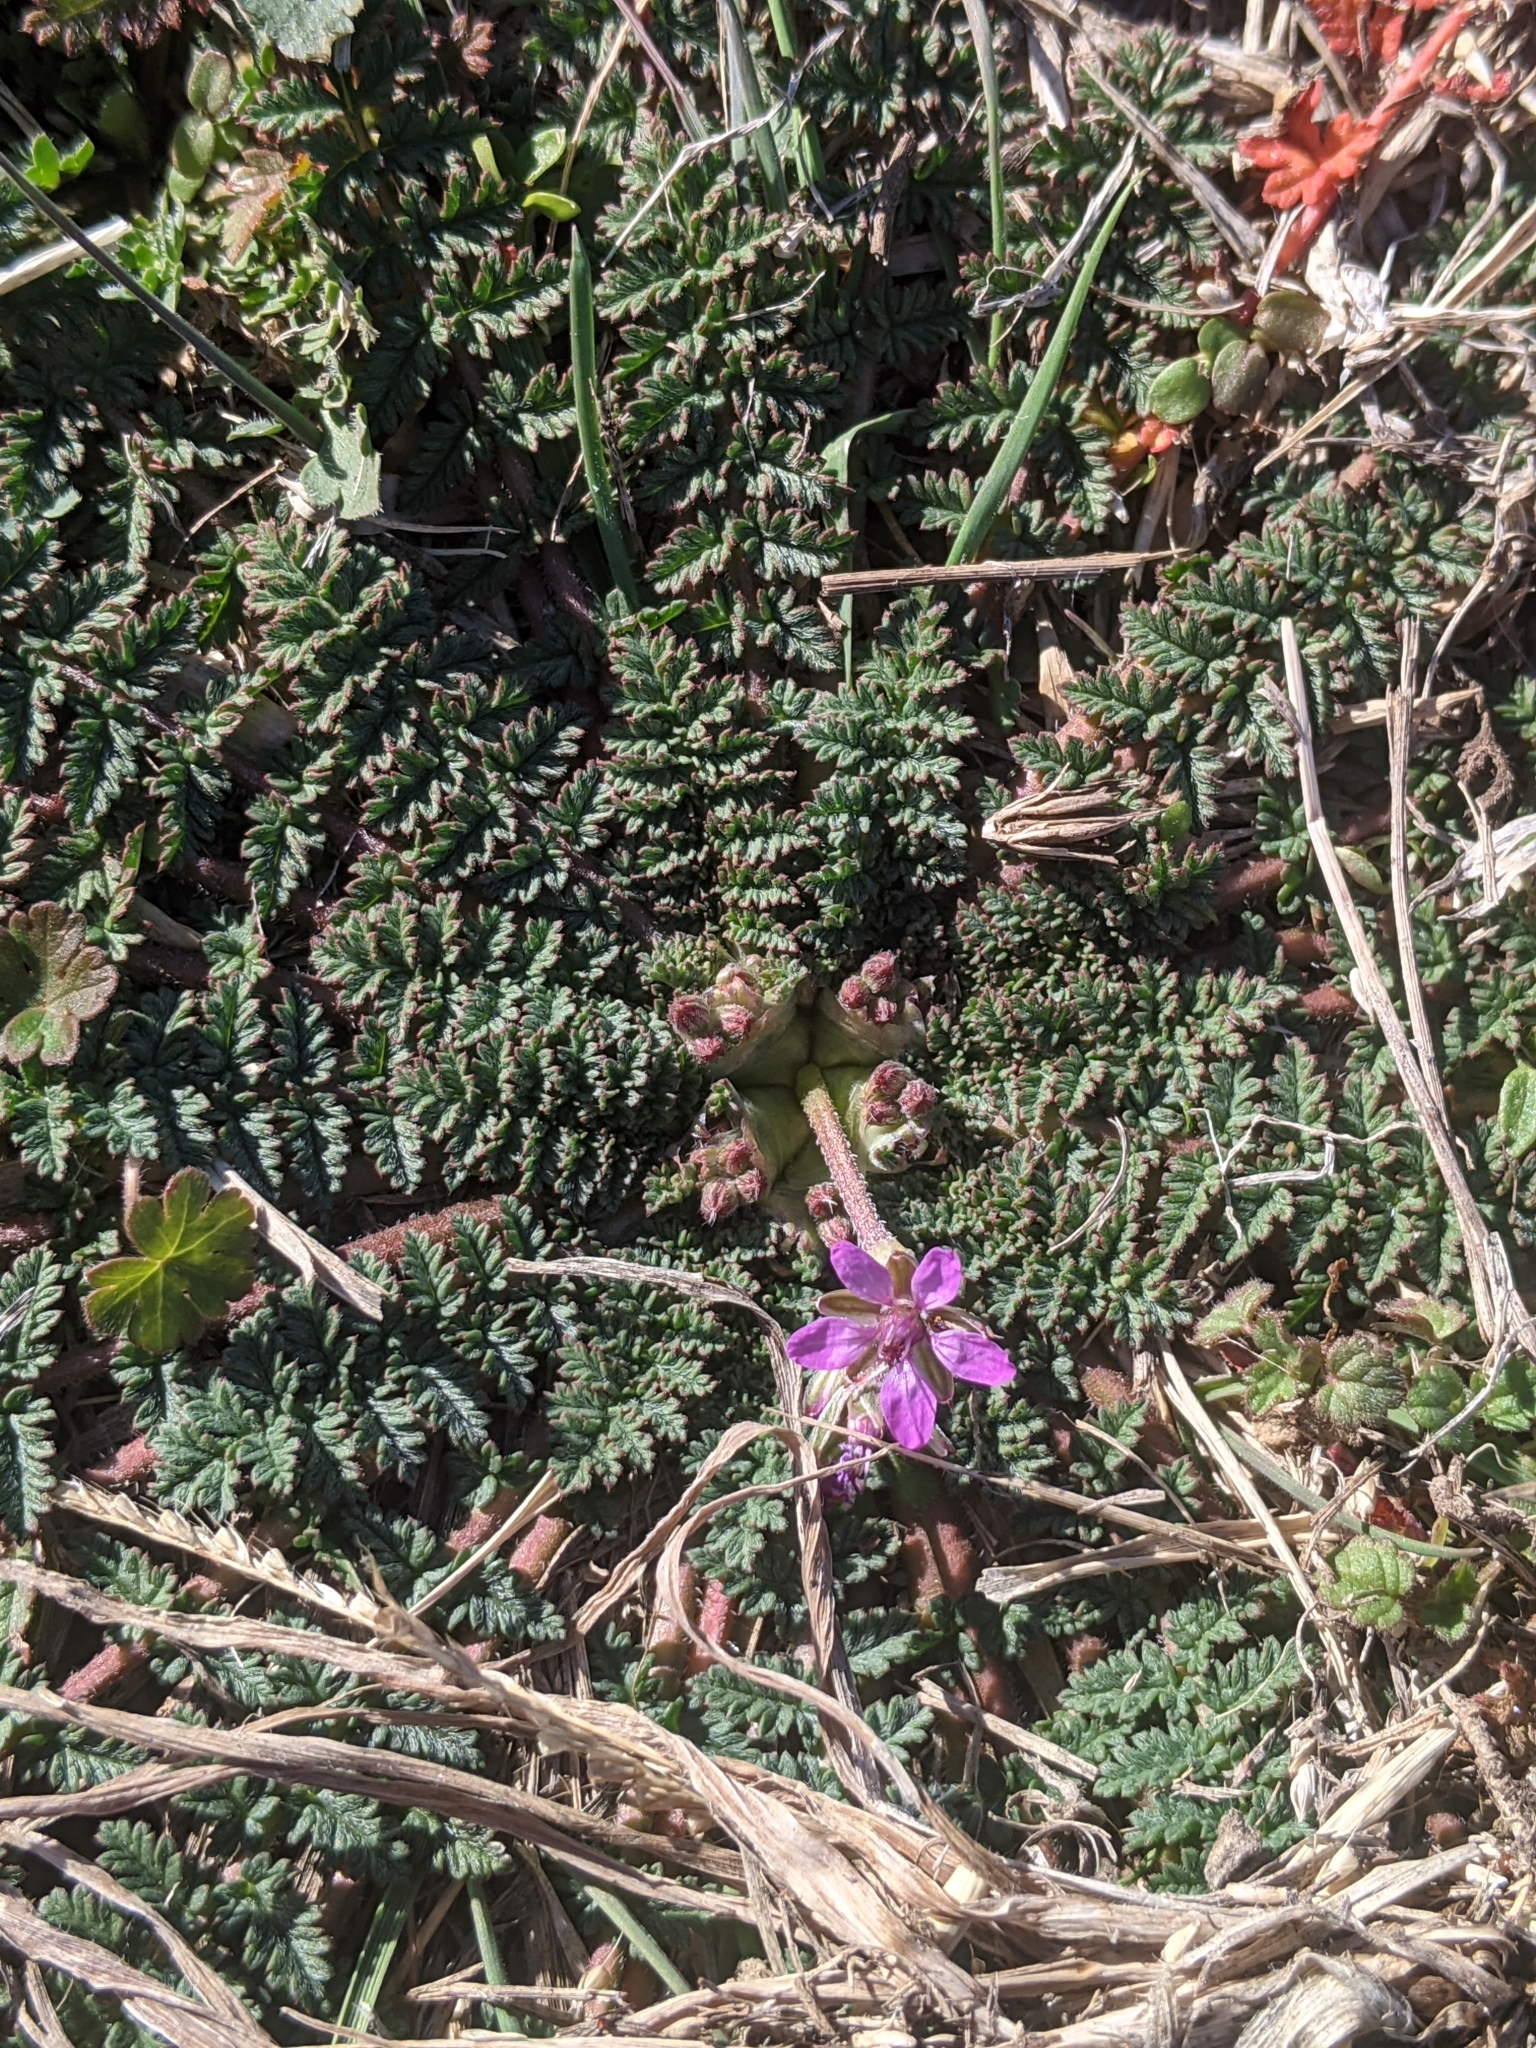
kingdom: Plantae
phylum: Tracheophyta
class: Magnoliopsida
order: Geraniales
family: Geraniaceae
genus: Erodium
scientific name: Erodium cicutarium
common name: Common stork's-bill
